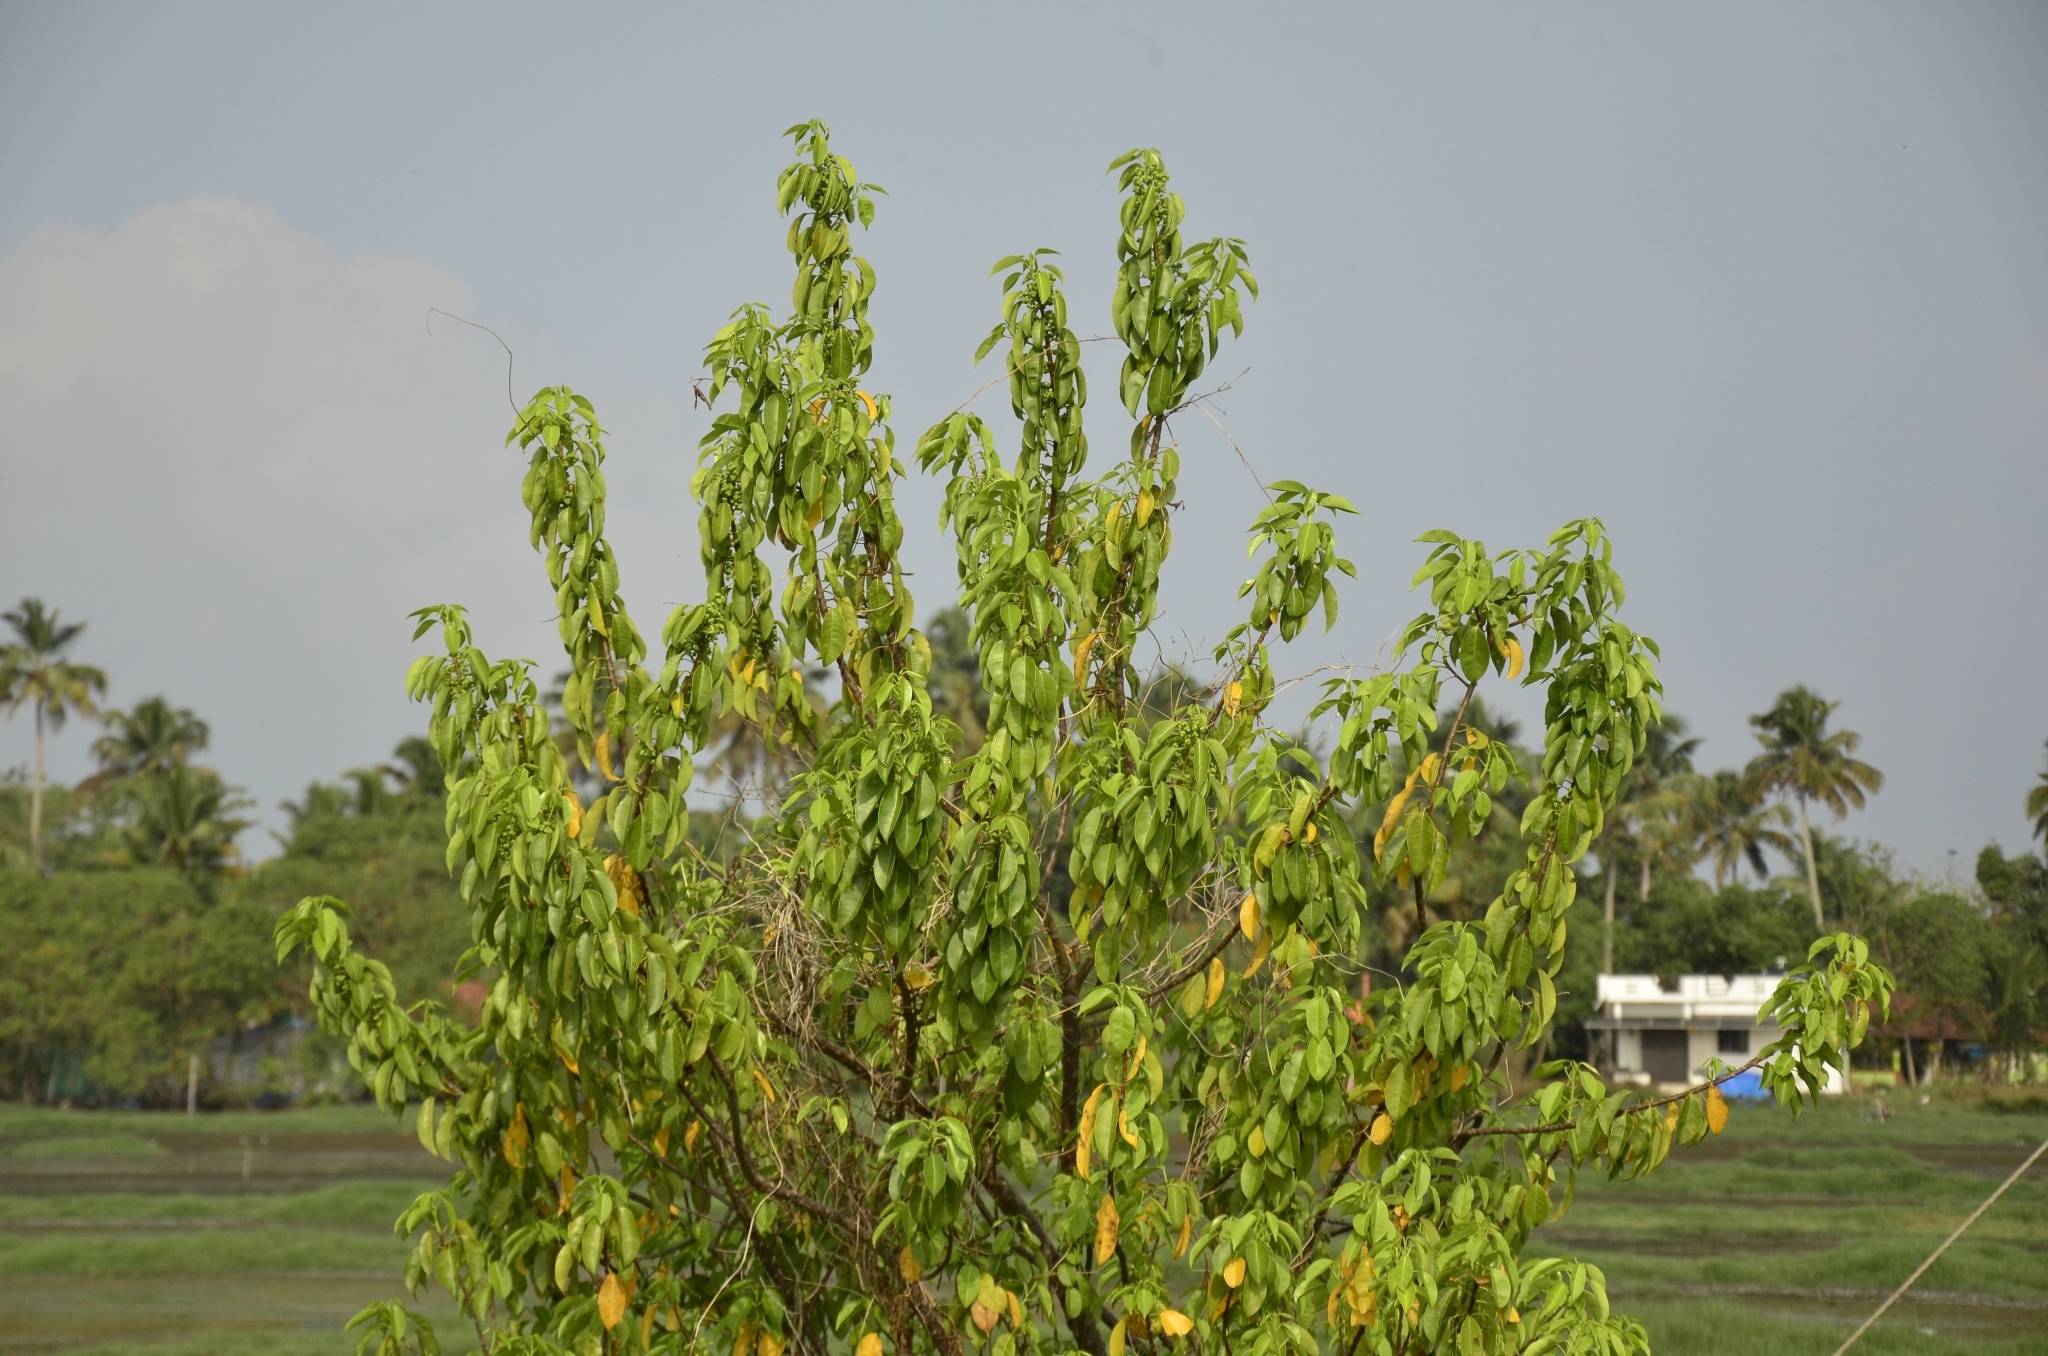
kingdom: Plantae
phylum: Tracheophyta
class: Magnoliopsida
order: Malpighiales
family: Euphorbiaceae
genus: Excoecaria
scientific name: Excoecaria agallocha
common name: River poisontree
